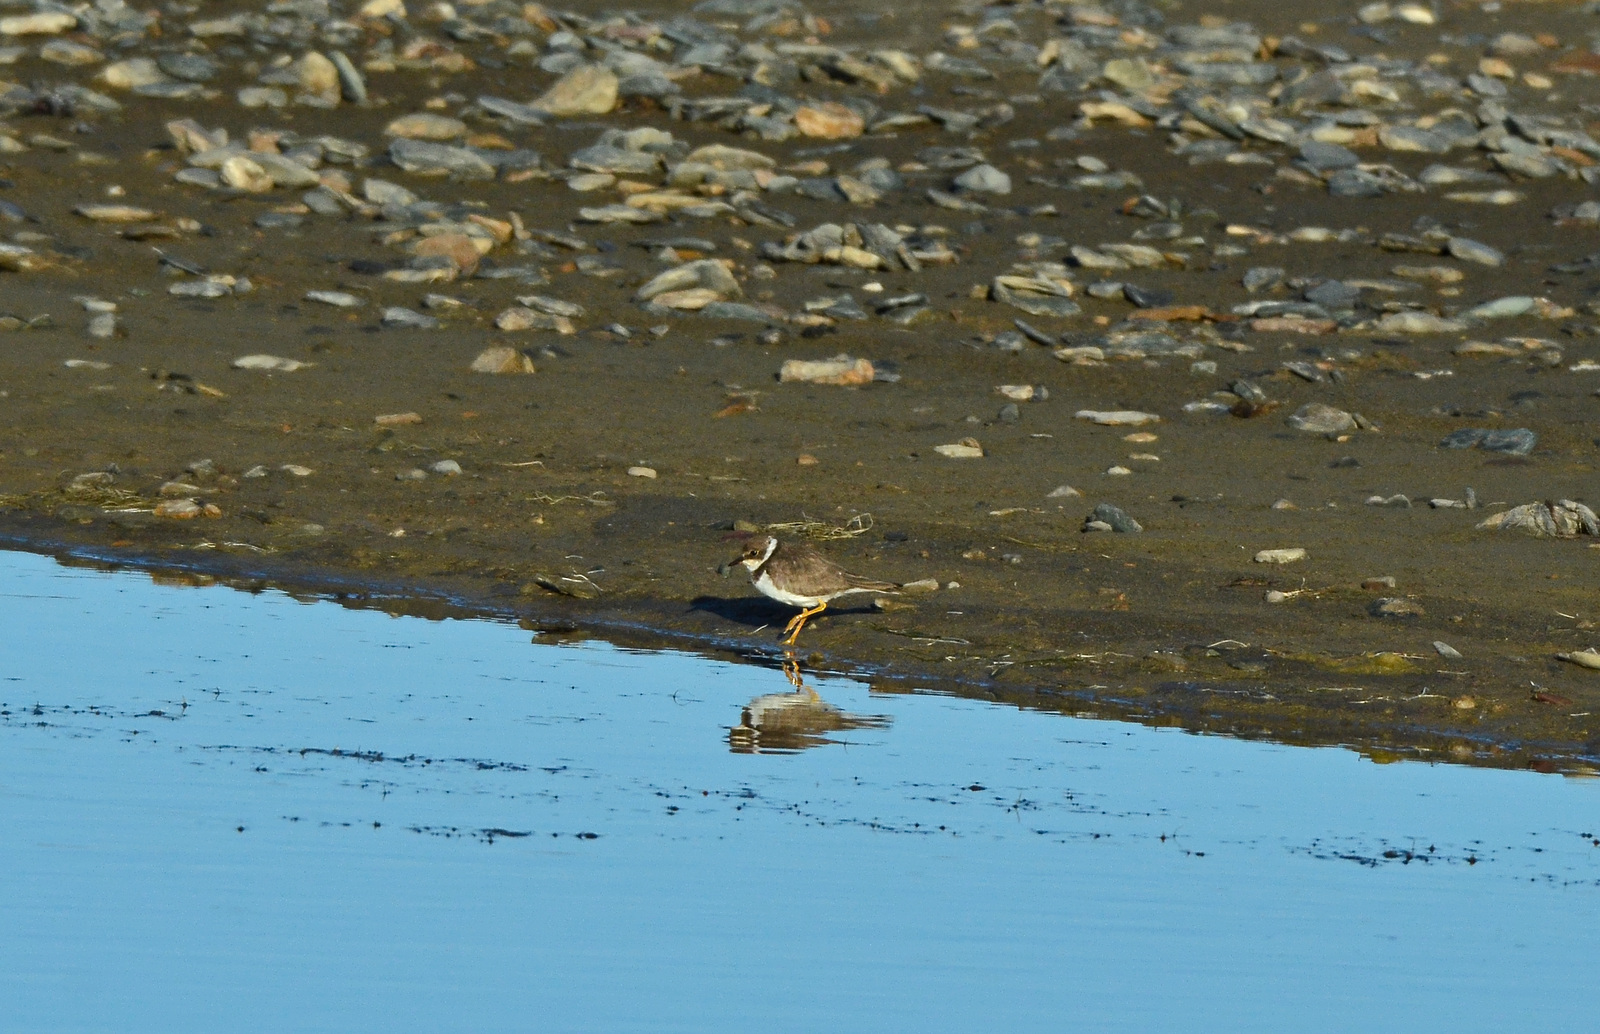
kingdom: Animalia
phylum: Chordata
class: Aves
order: Charadriiformes
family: Charadriidae
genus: Charadrius
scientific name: Charadrius dubius
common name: Little ringed plover
